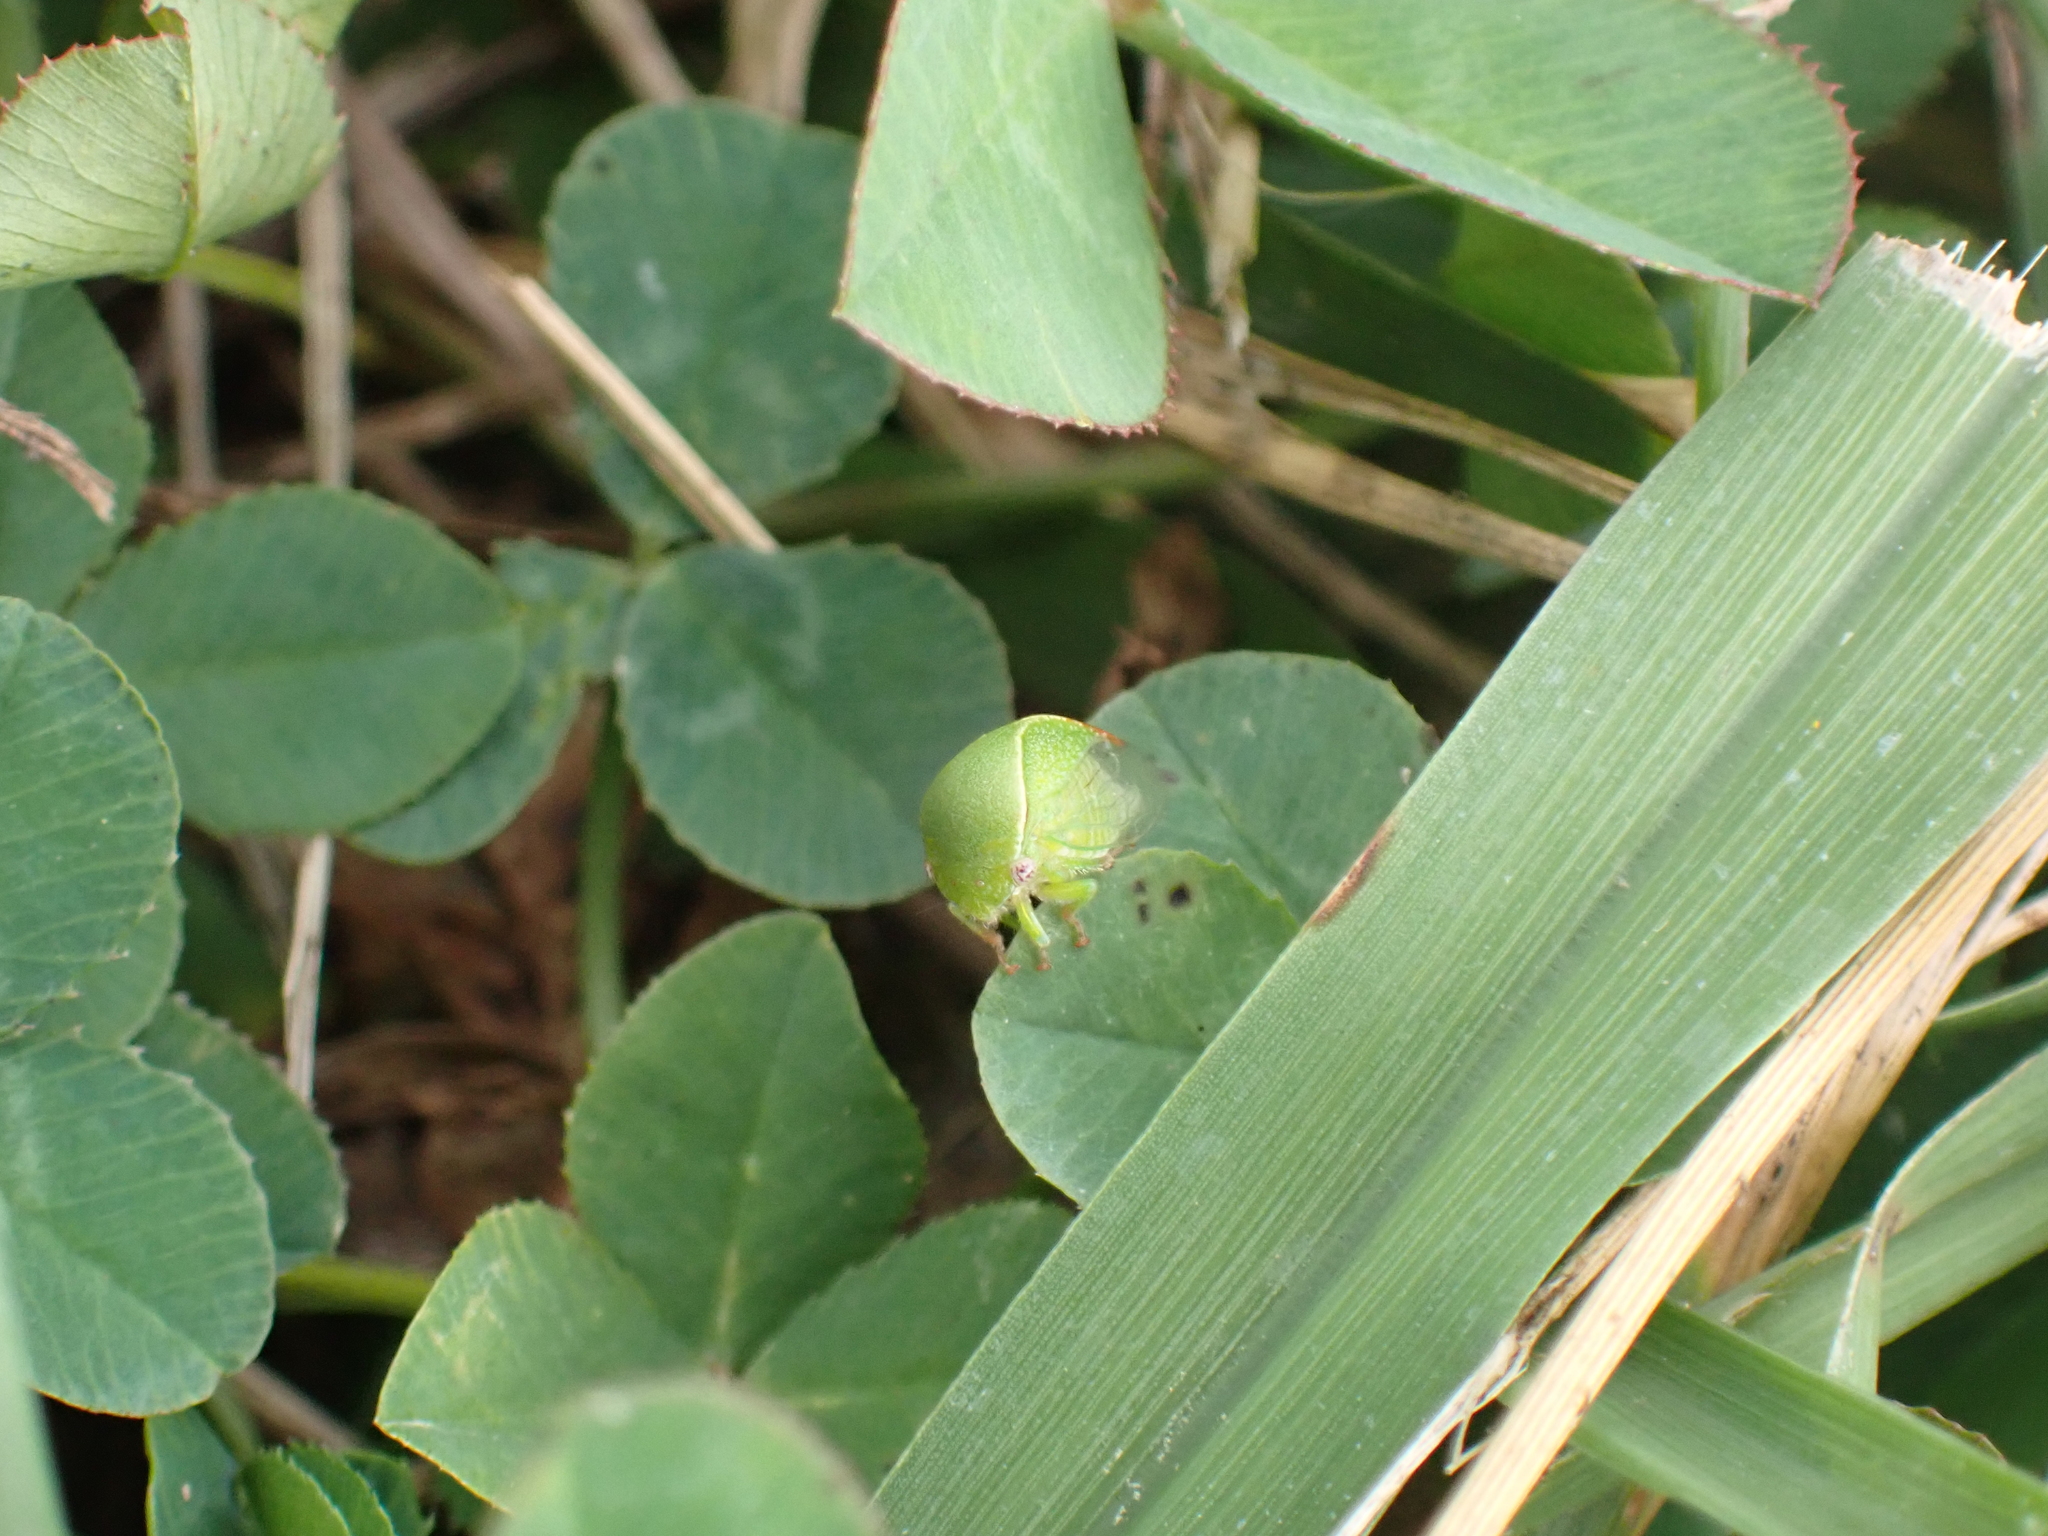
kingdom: Animalia
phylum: Arthropoda
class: Insecta
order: Hemiptera
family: Membracidae
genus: Spissistilus
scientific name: Spissistilus festina
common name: Membracid bug
